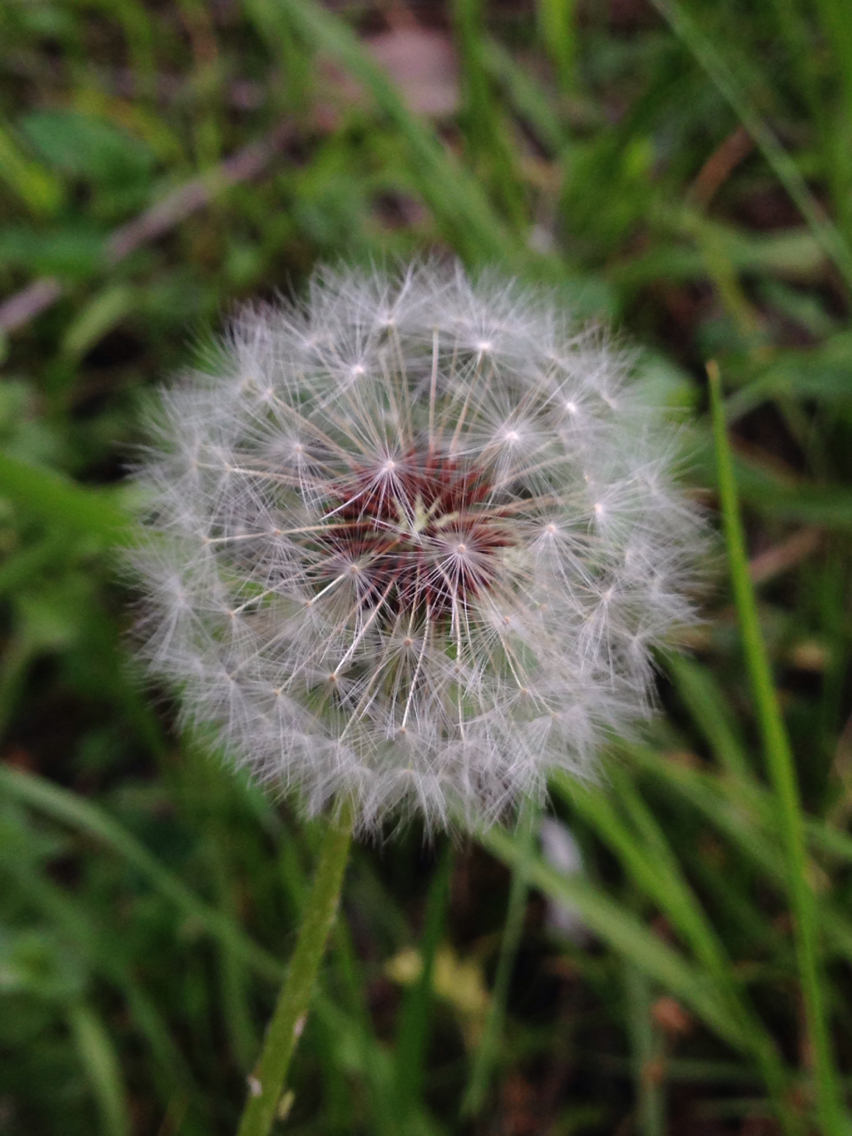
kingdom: Plantae
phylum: Tracheophyta
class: Magnoliopsida
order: Asterales
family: Asteraceae
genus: Taraxacum
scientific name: Taraxacum erythrospermum
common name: Rock dandelion
